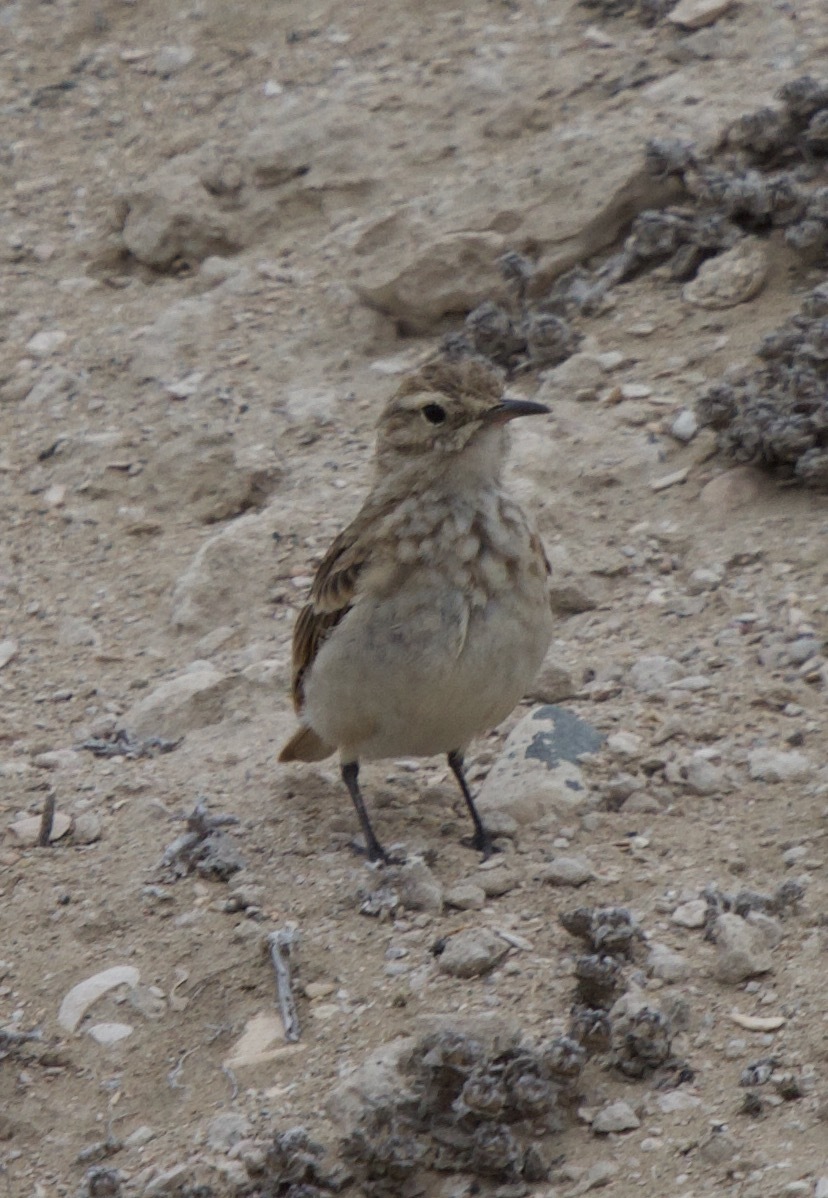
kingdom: Animalia
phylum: Chordata
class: Aves
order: Passeriformes
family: Furnariidae
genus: Geositta
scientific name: Geositta cunicularia
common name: Common miner
